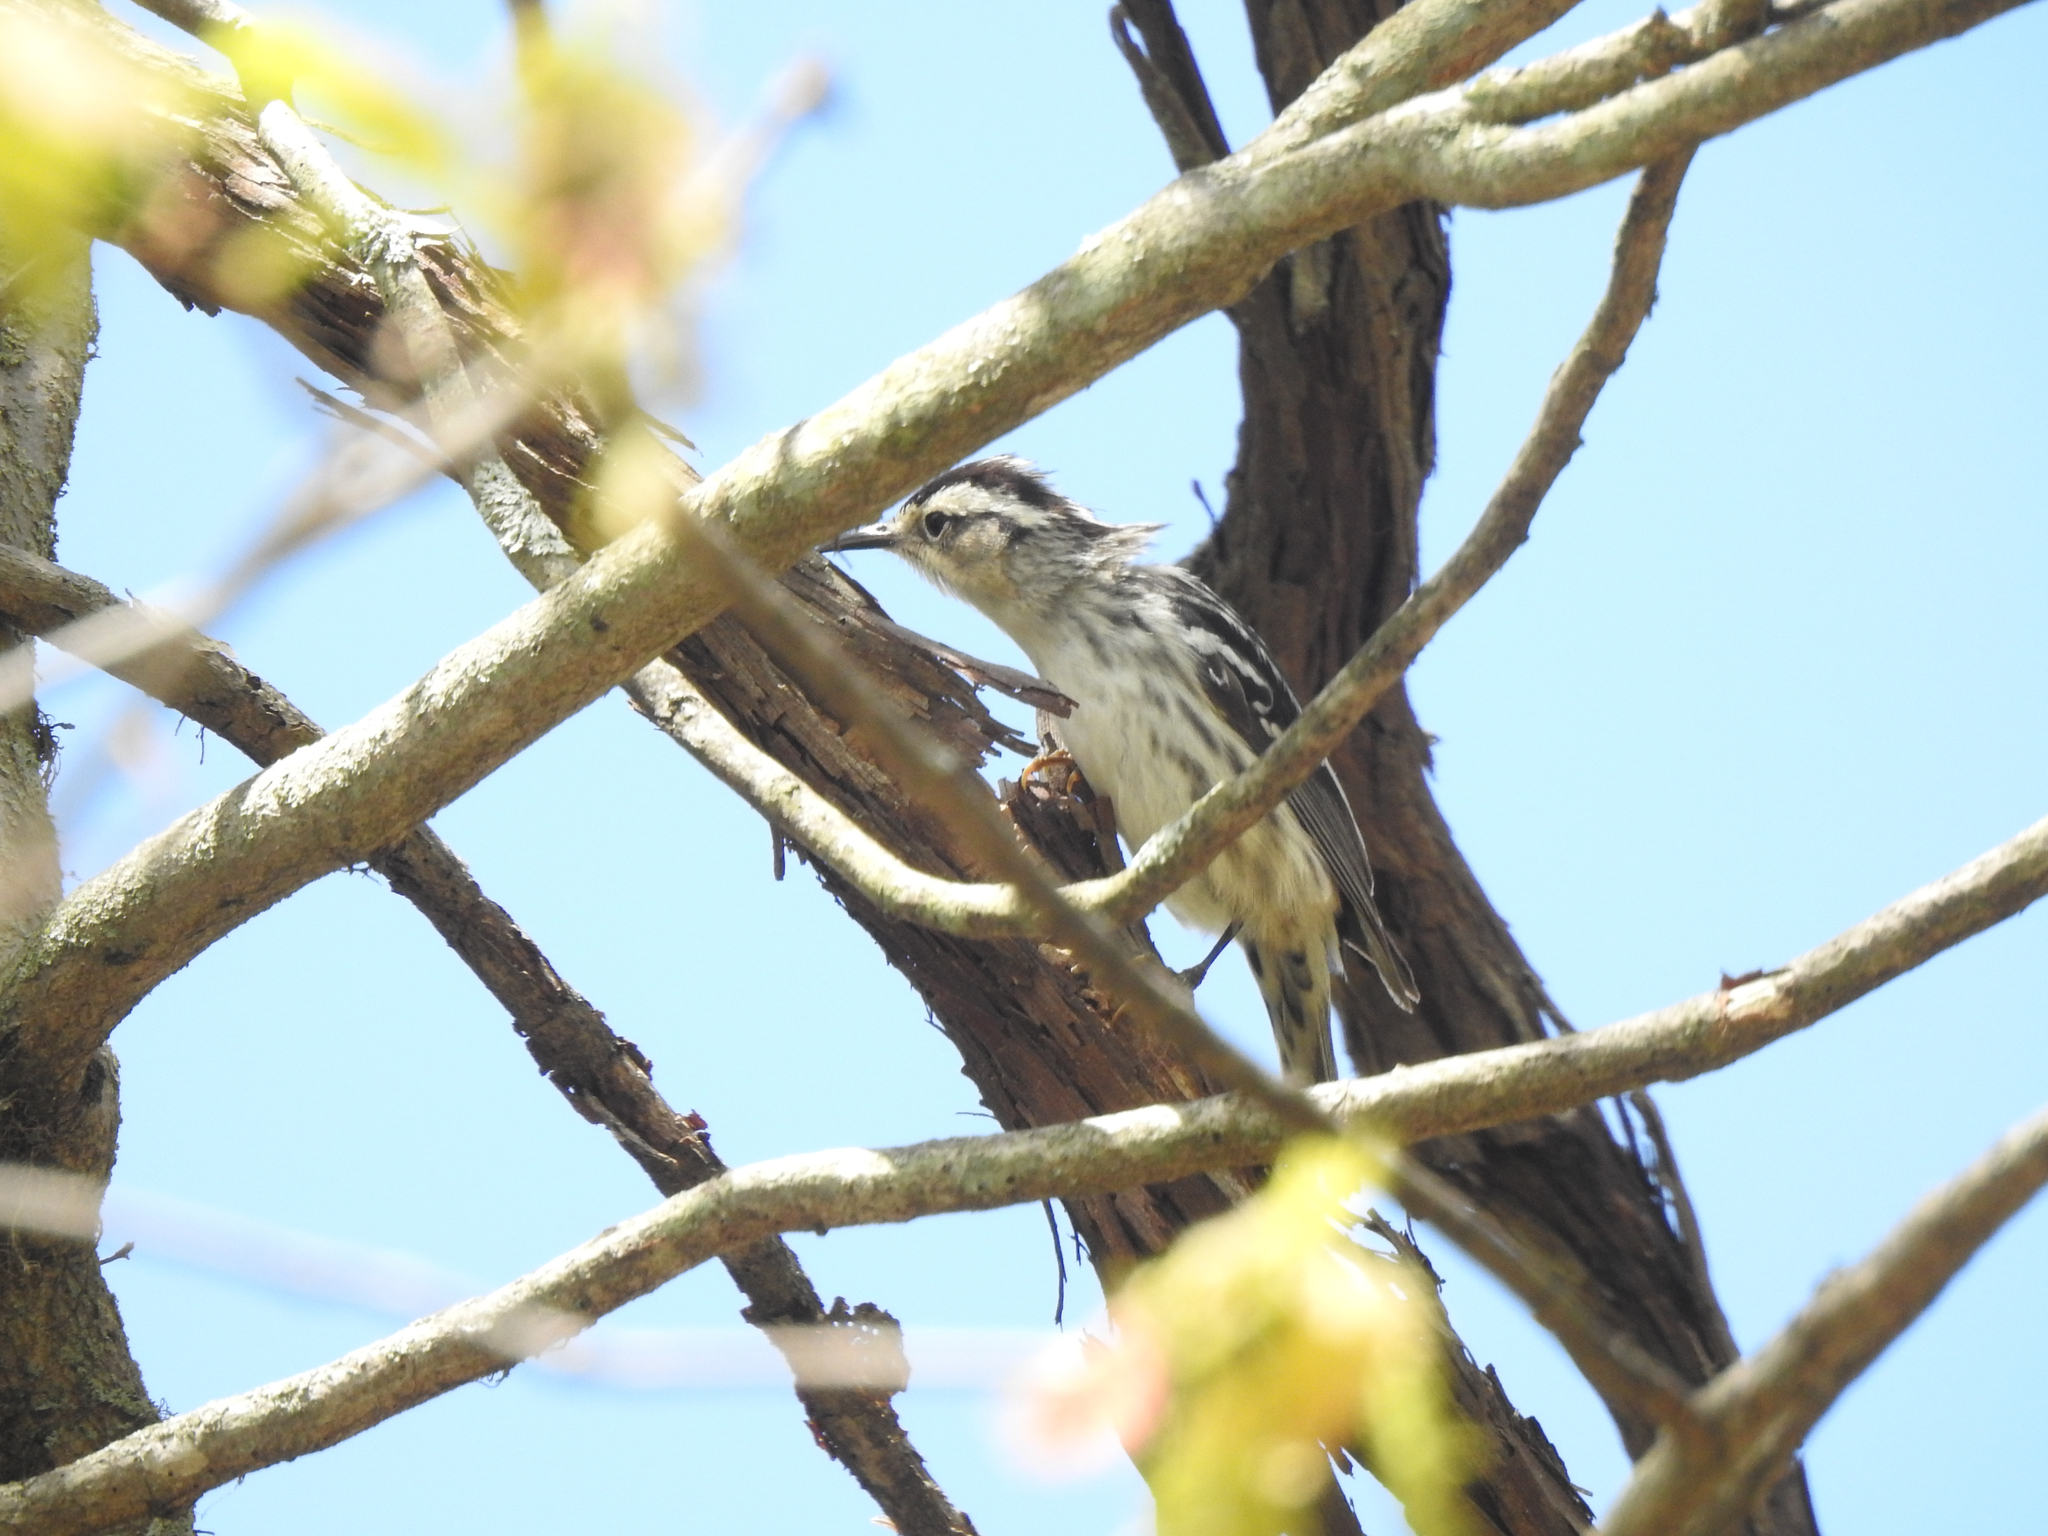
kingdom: Animalia
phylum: Chordata
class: Aves
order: Passeriformes
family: Parulidae
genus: Mniotilta
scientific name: Mniotilta varia
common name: Black-and-white warbler
